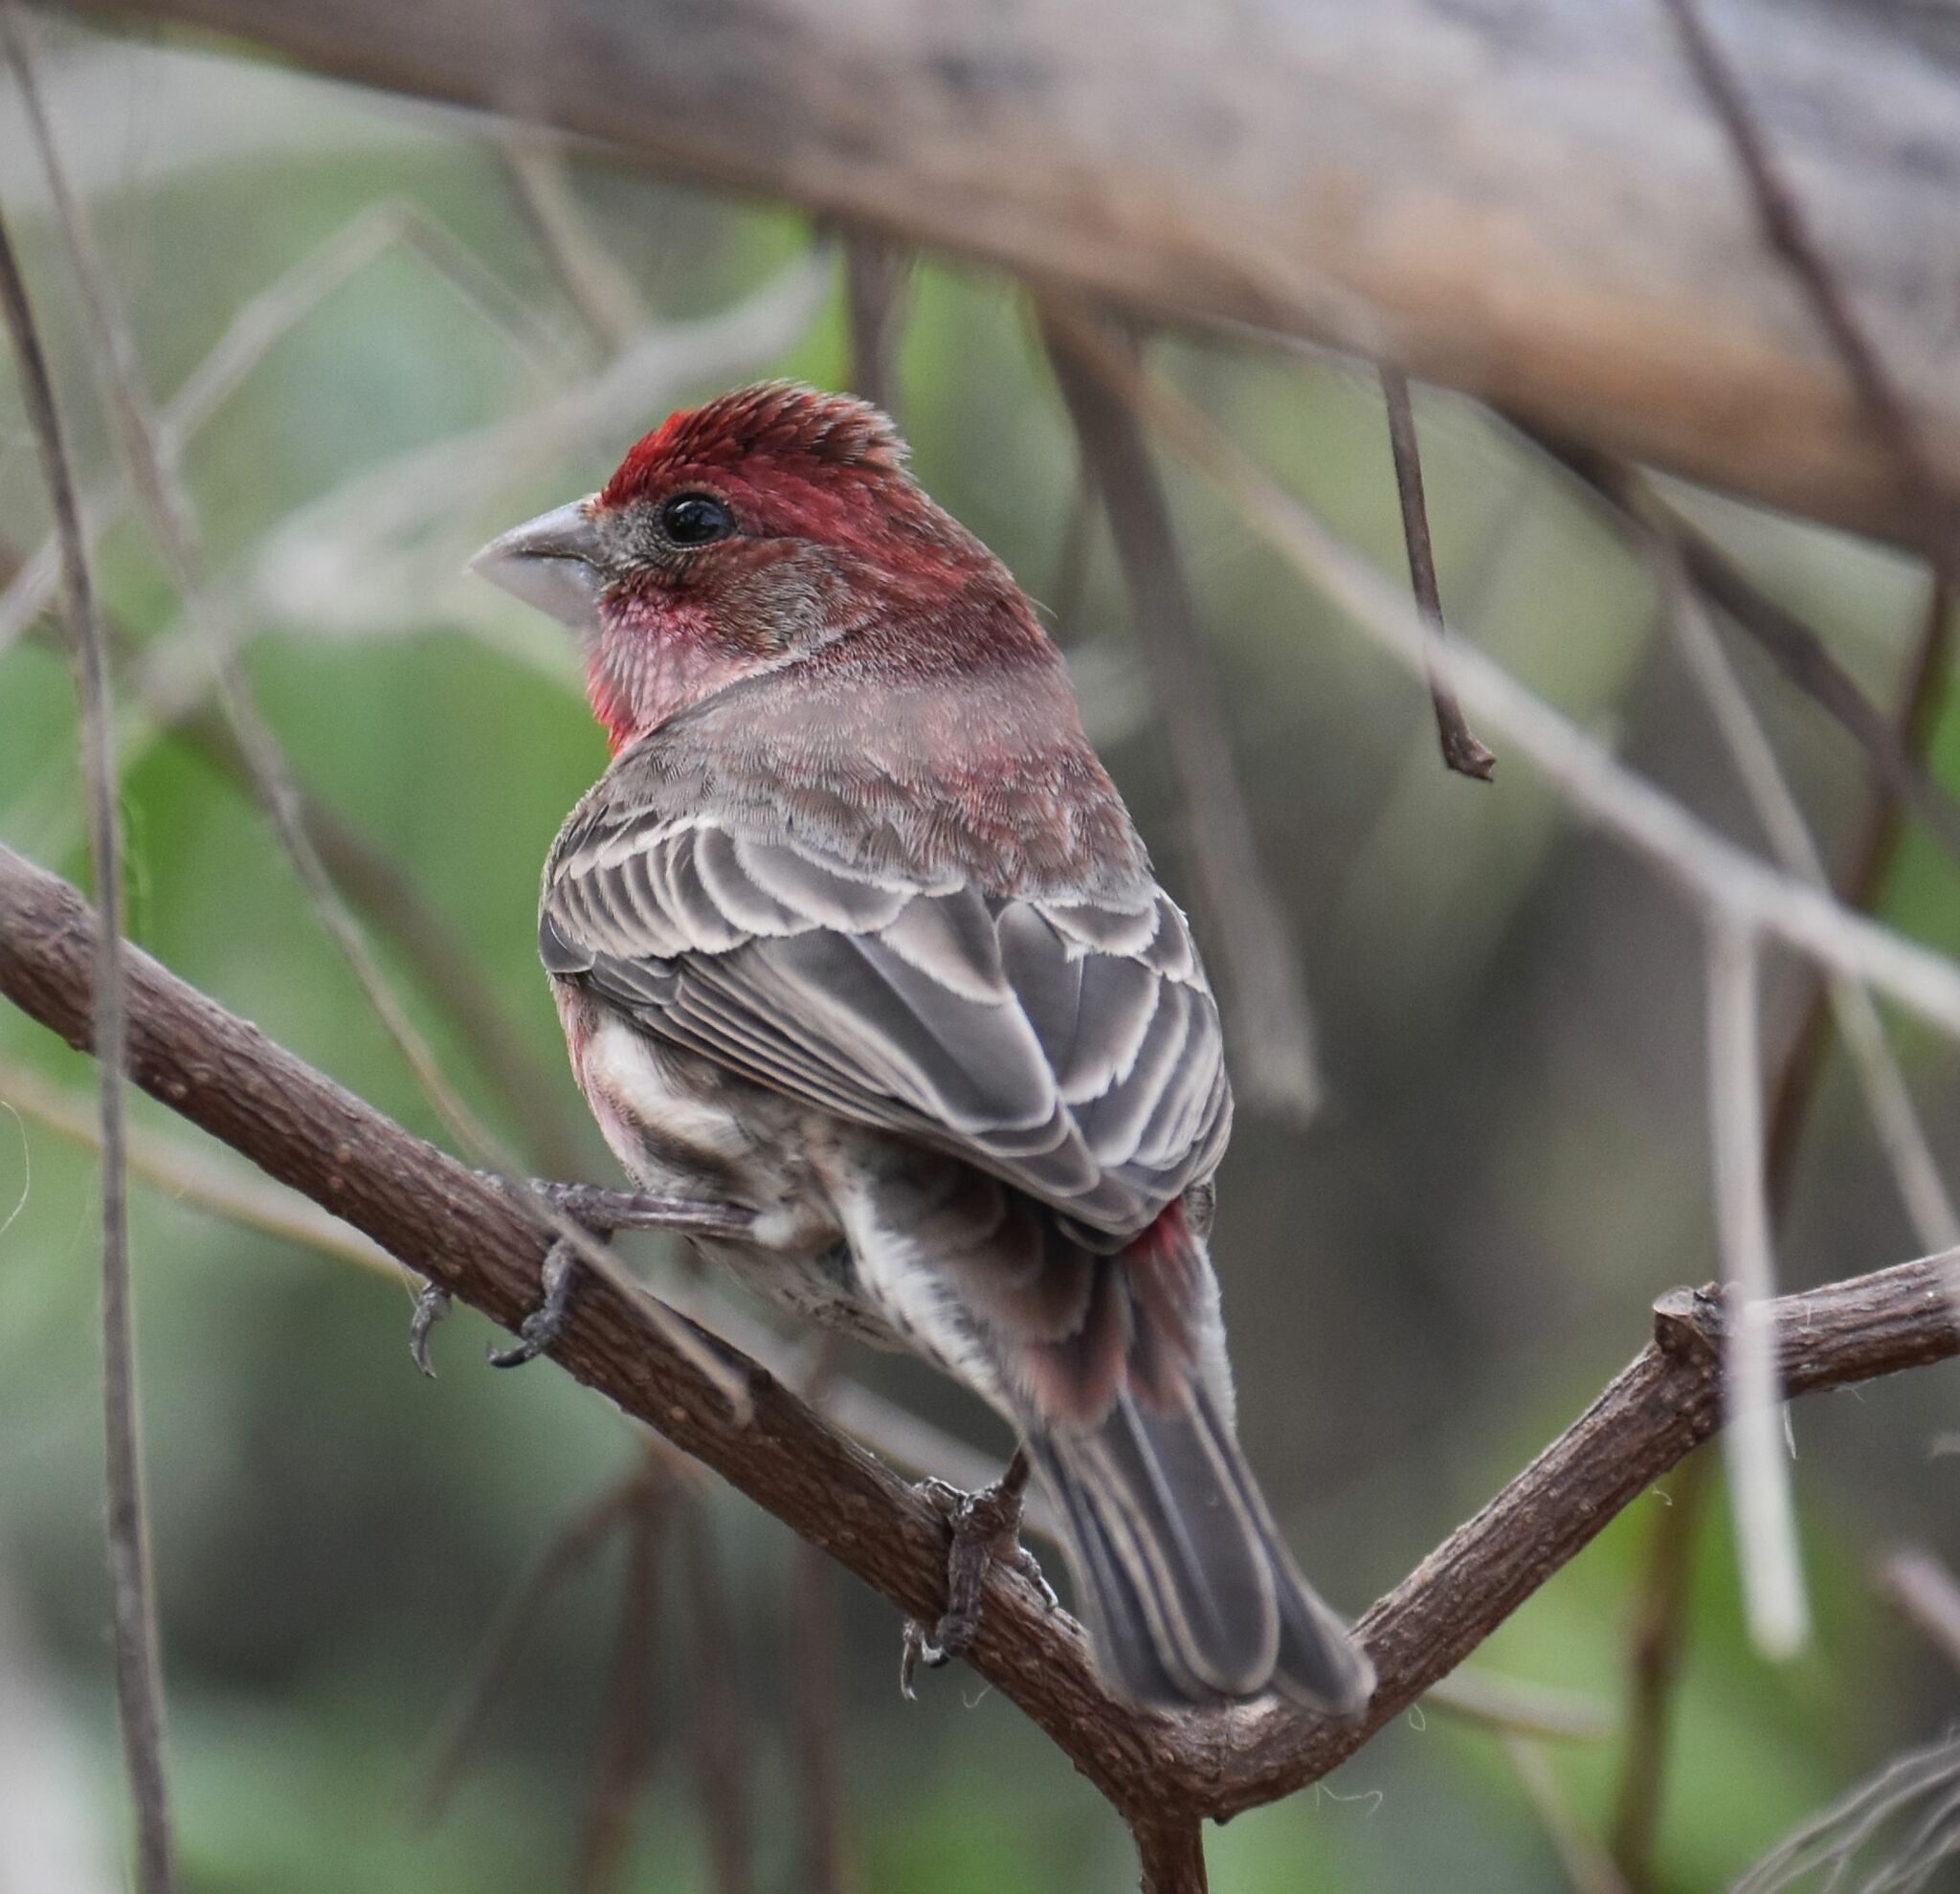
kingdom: Animalia
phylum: Chordata
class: Aves
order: Passeriformes
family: Fringillidae
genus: Haemorhous
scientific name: Haemorhous mexicanus
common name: House finch
